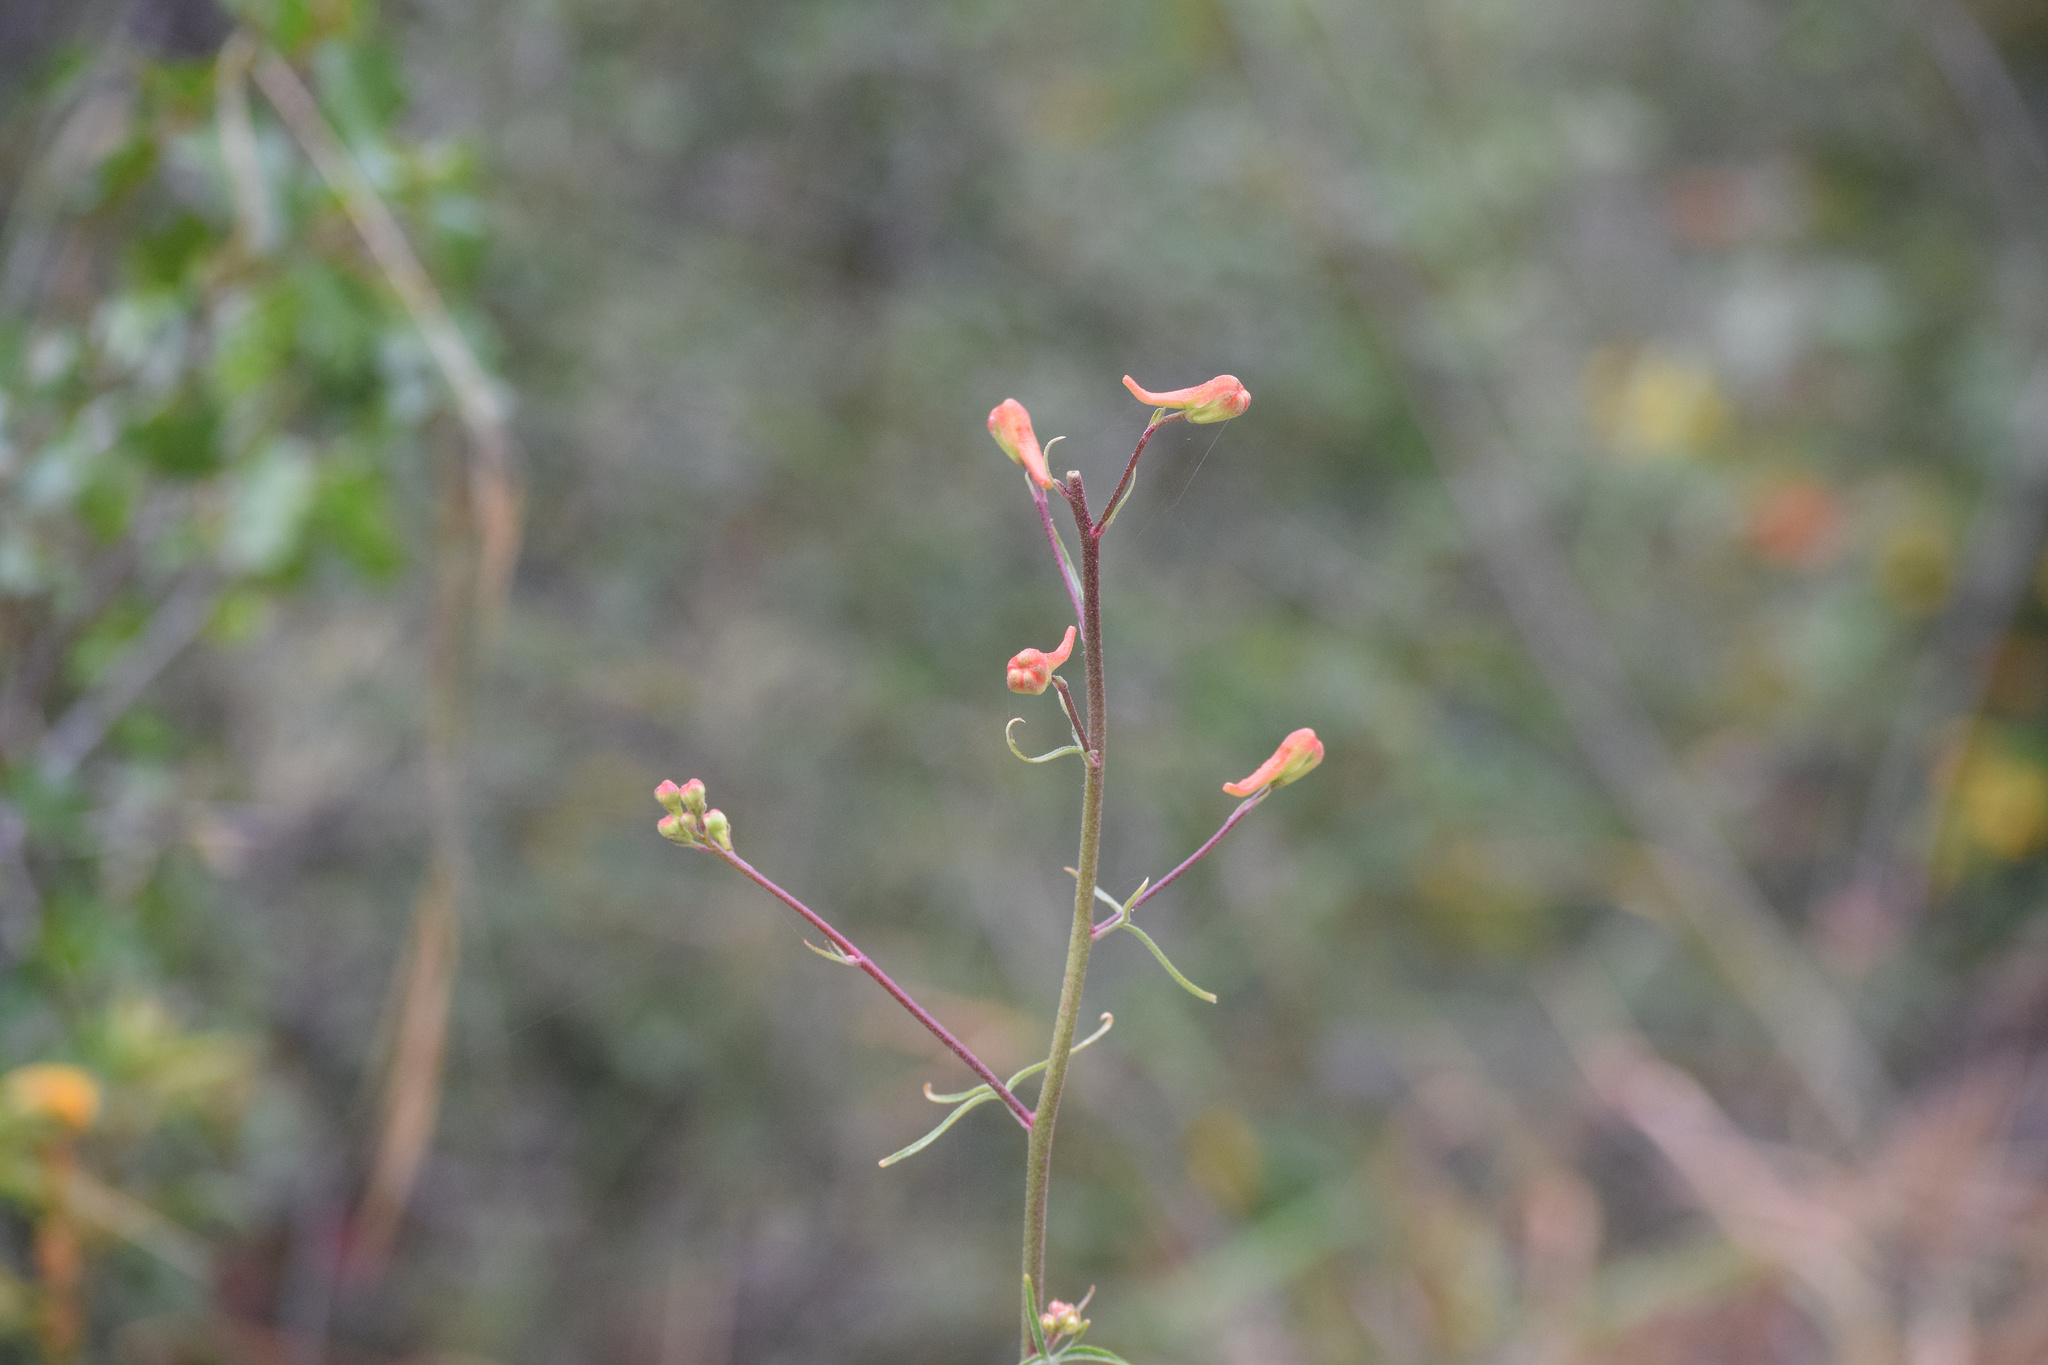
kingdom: Plantae
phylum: Tracheophyta
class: Magnoliopsida
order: Ranunculales
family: Ranunculaceae
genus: Delphinium
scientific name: Delphinium cardinale
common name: Scarlet larkspur
